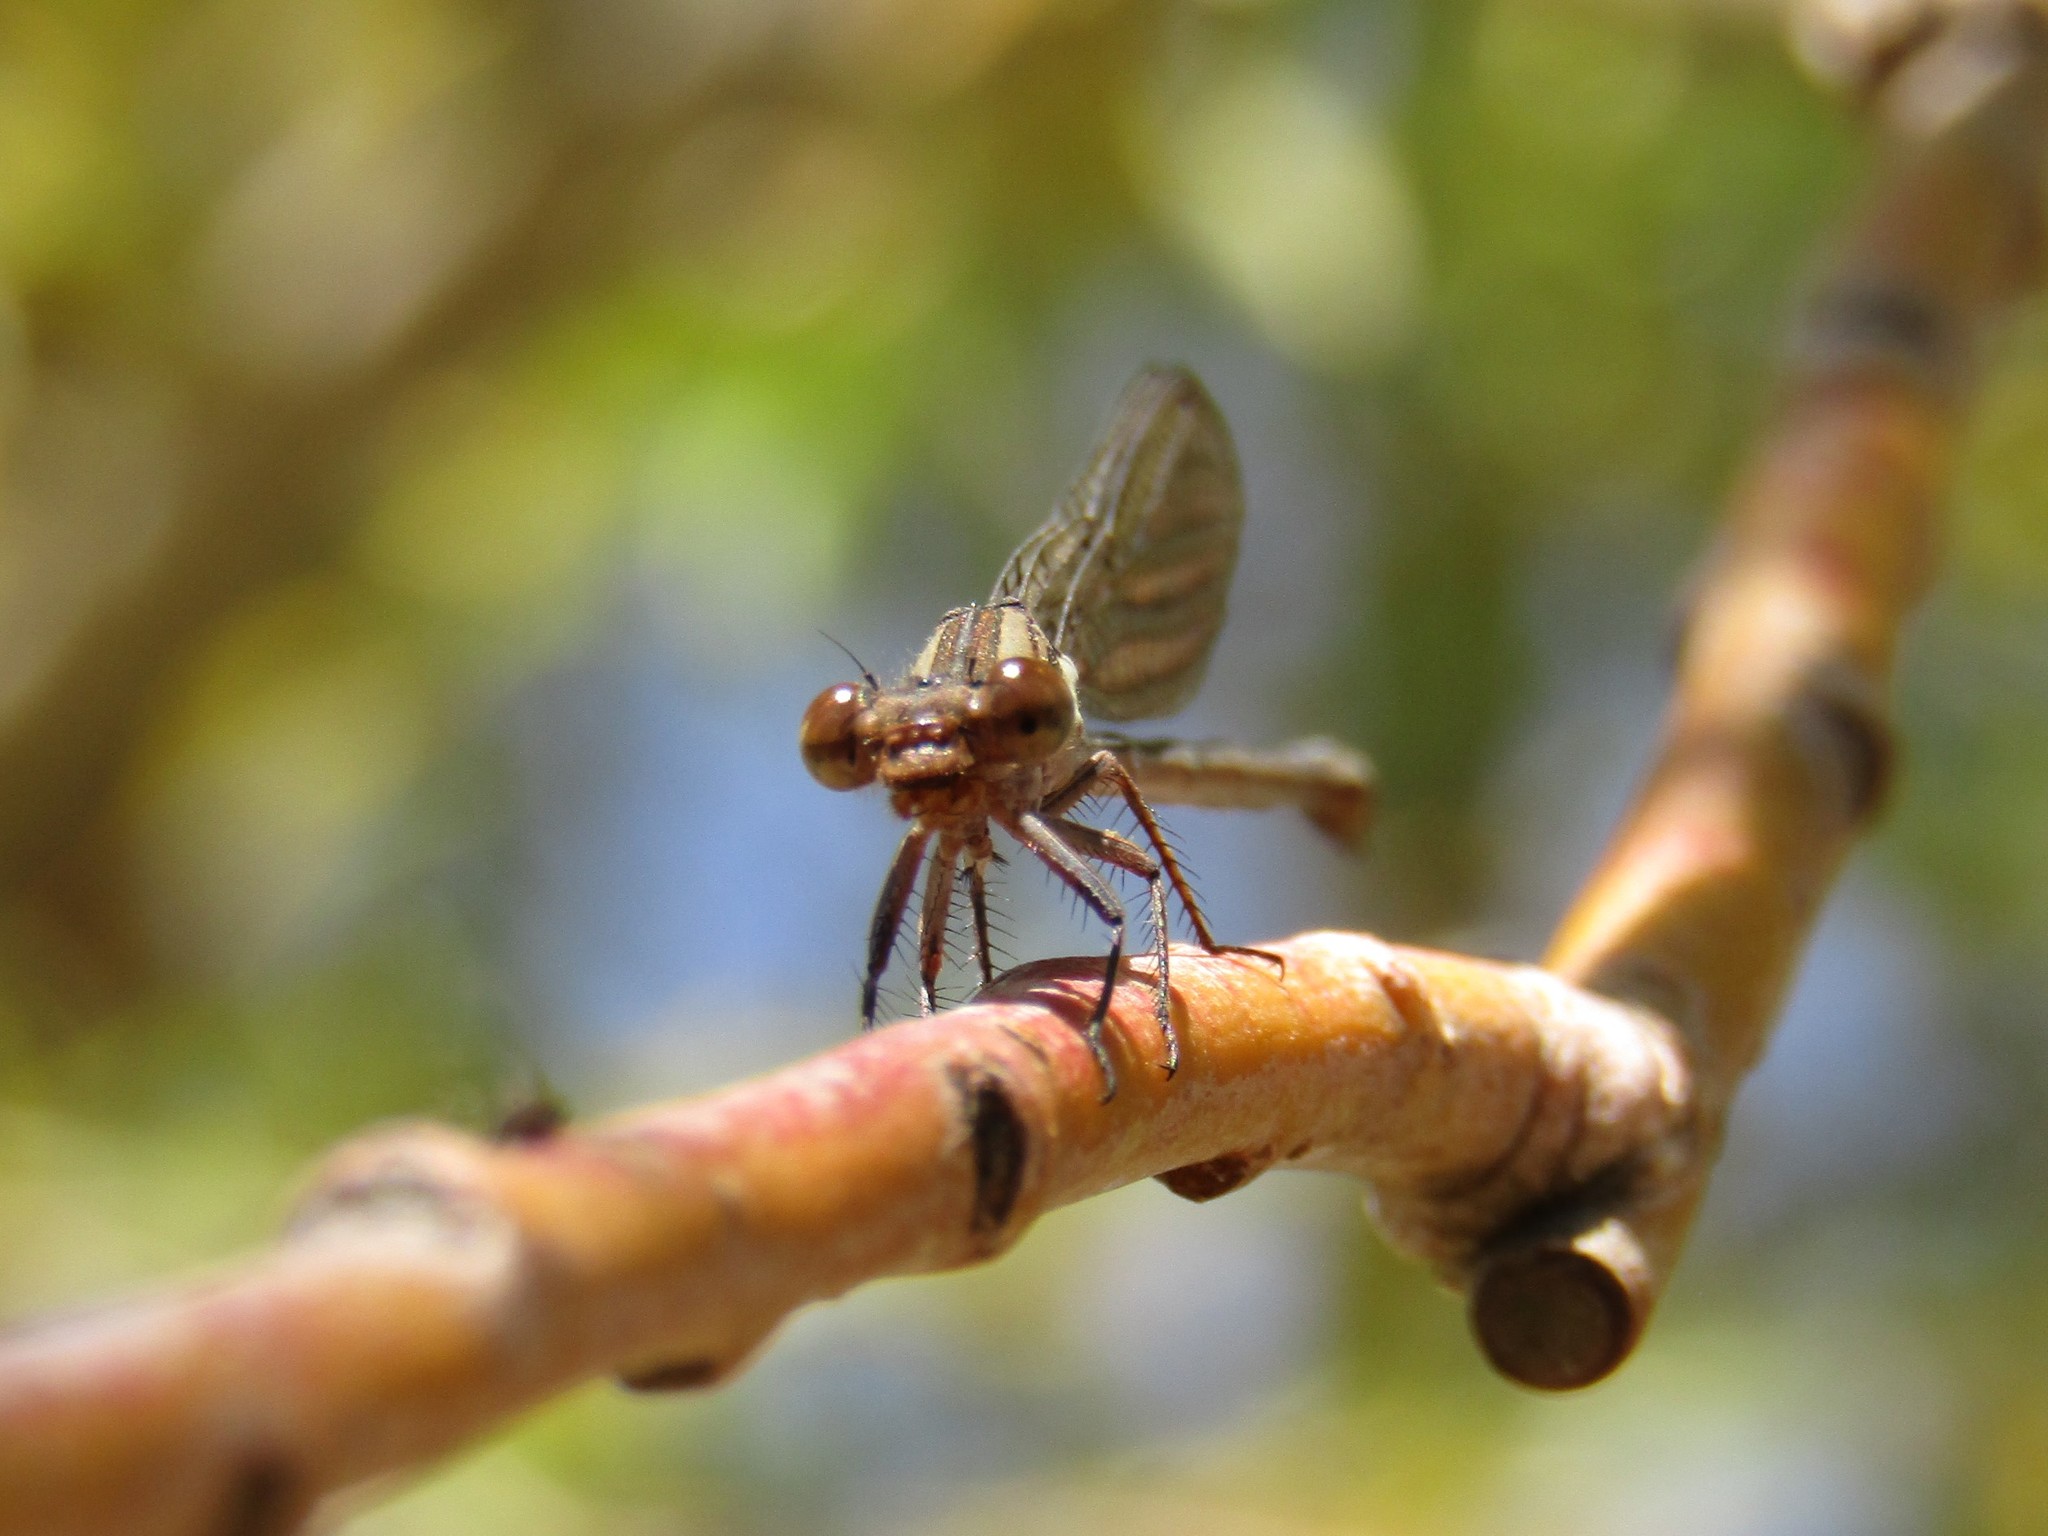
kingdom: Animalia
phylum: Arthropoda
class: Insecta
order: Odonata
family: Coenagrionidae
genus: Argia
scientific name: Argia joergenseni
